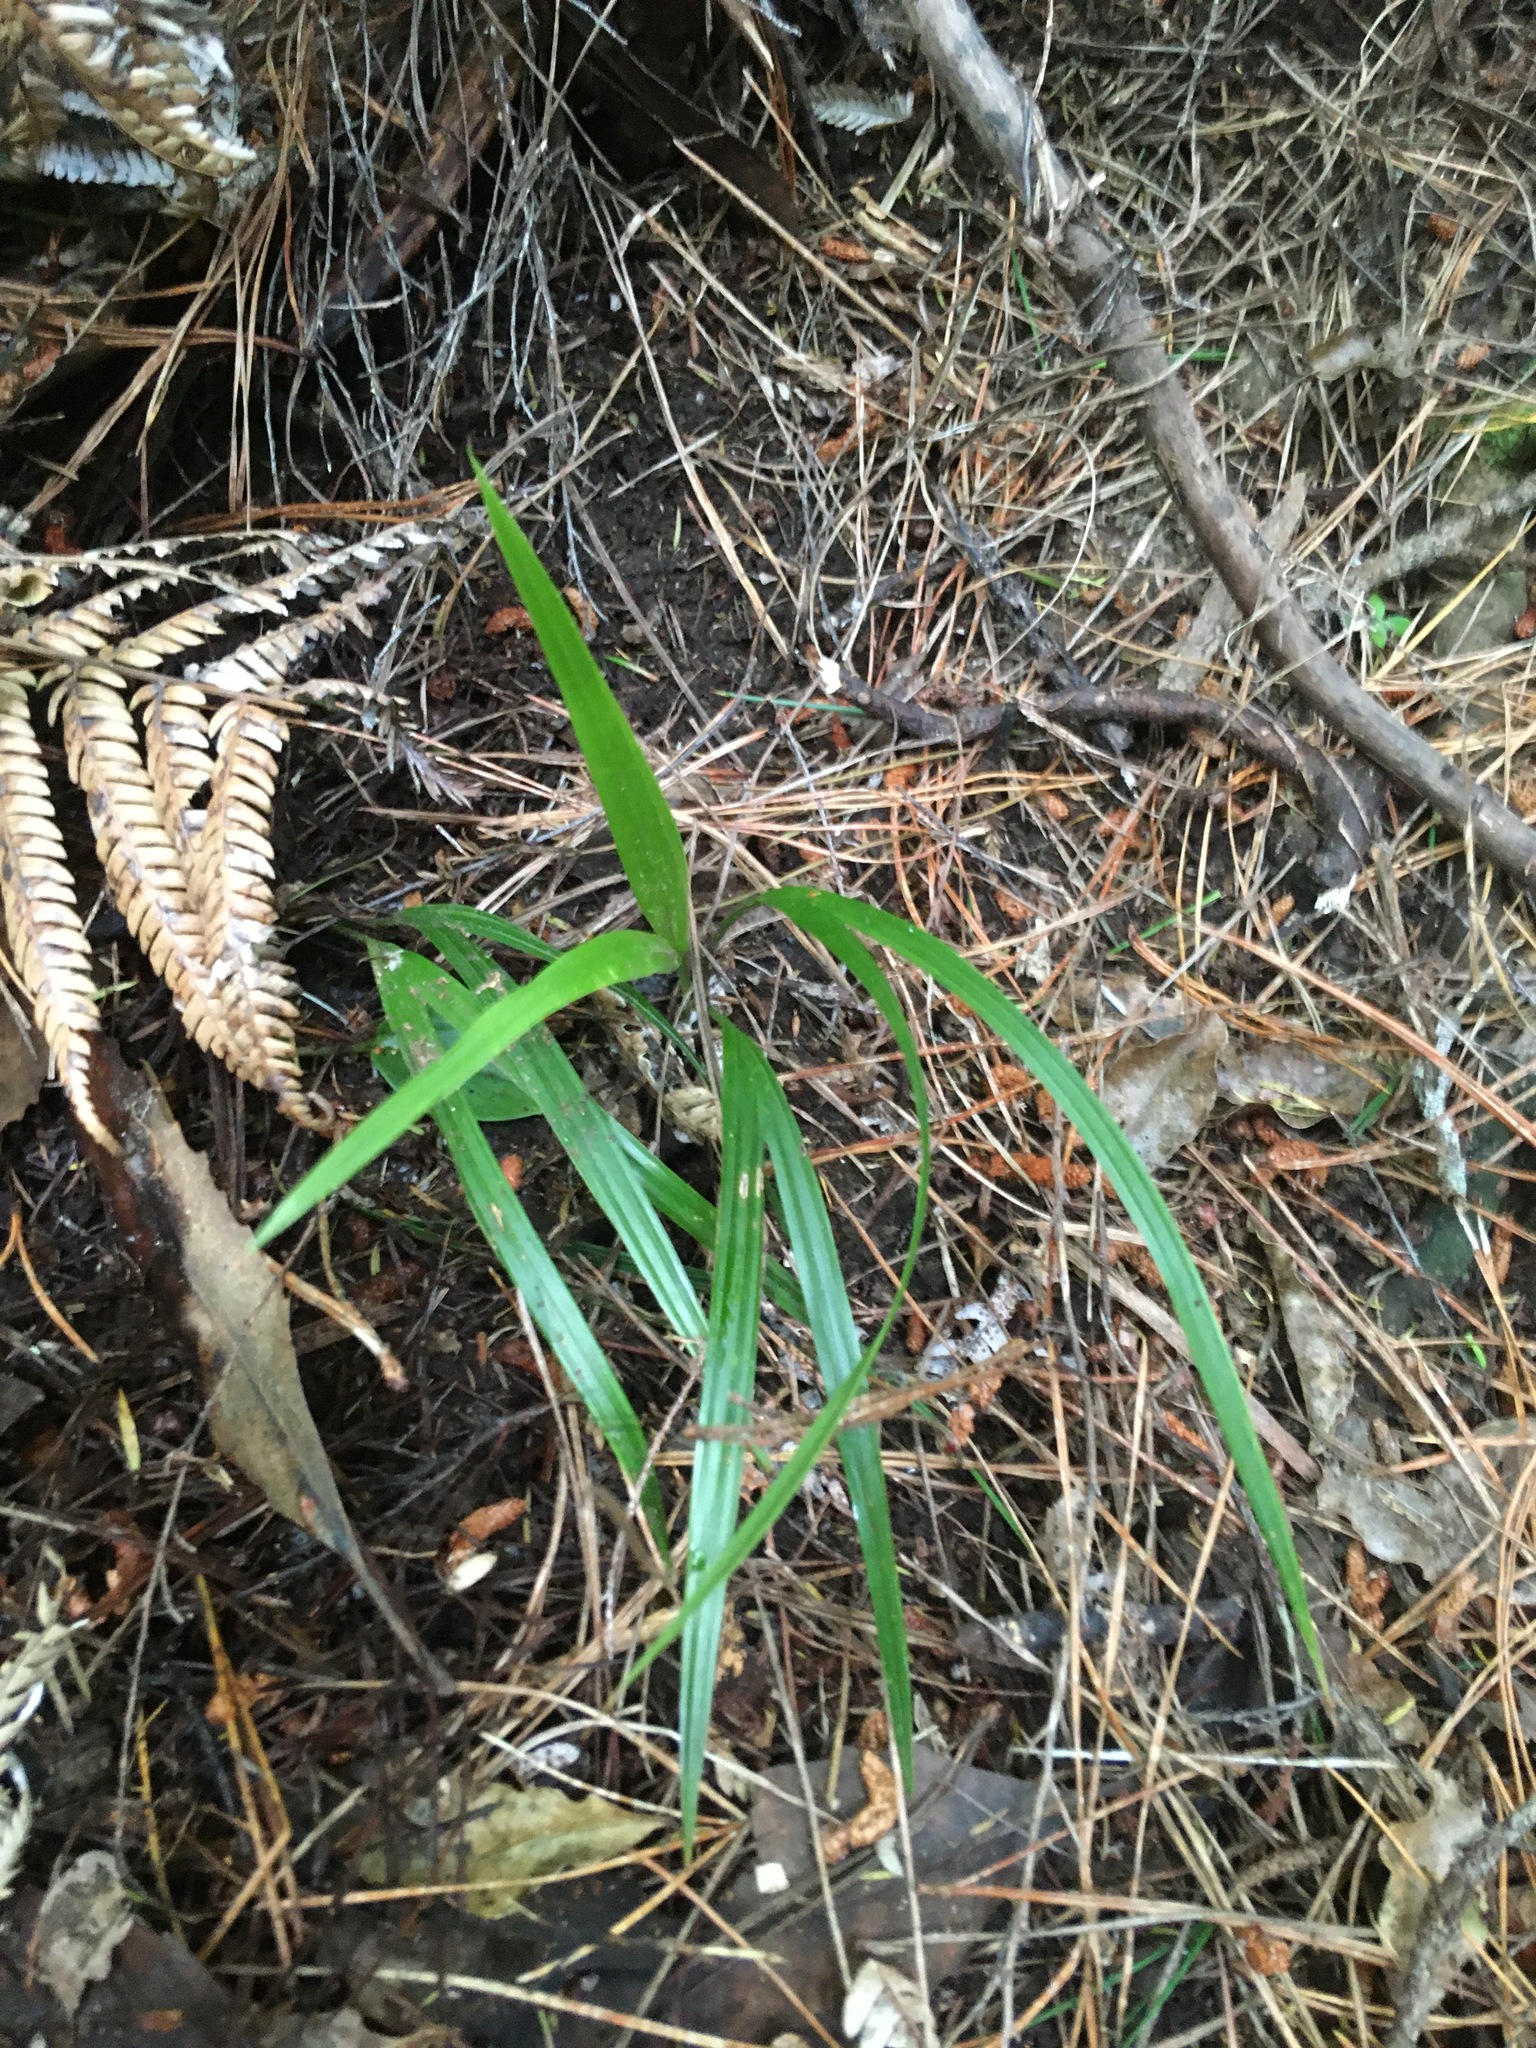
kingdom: Plantae
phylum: Tracheophyta
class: Liliopsida
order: Arecales
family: Arecaceae
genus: Rhopalostylis
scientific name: Rhopalostylis sapida
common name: Feather-duster palm
